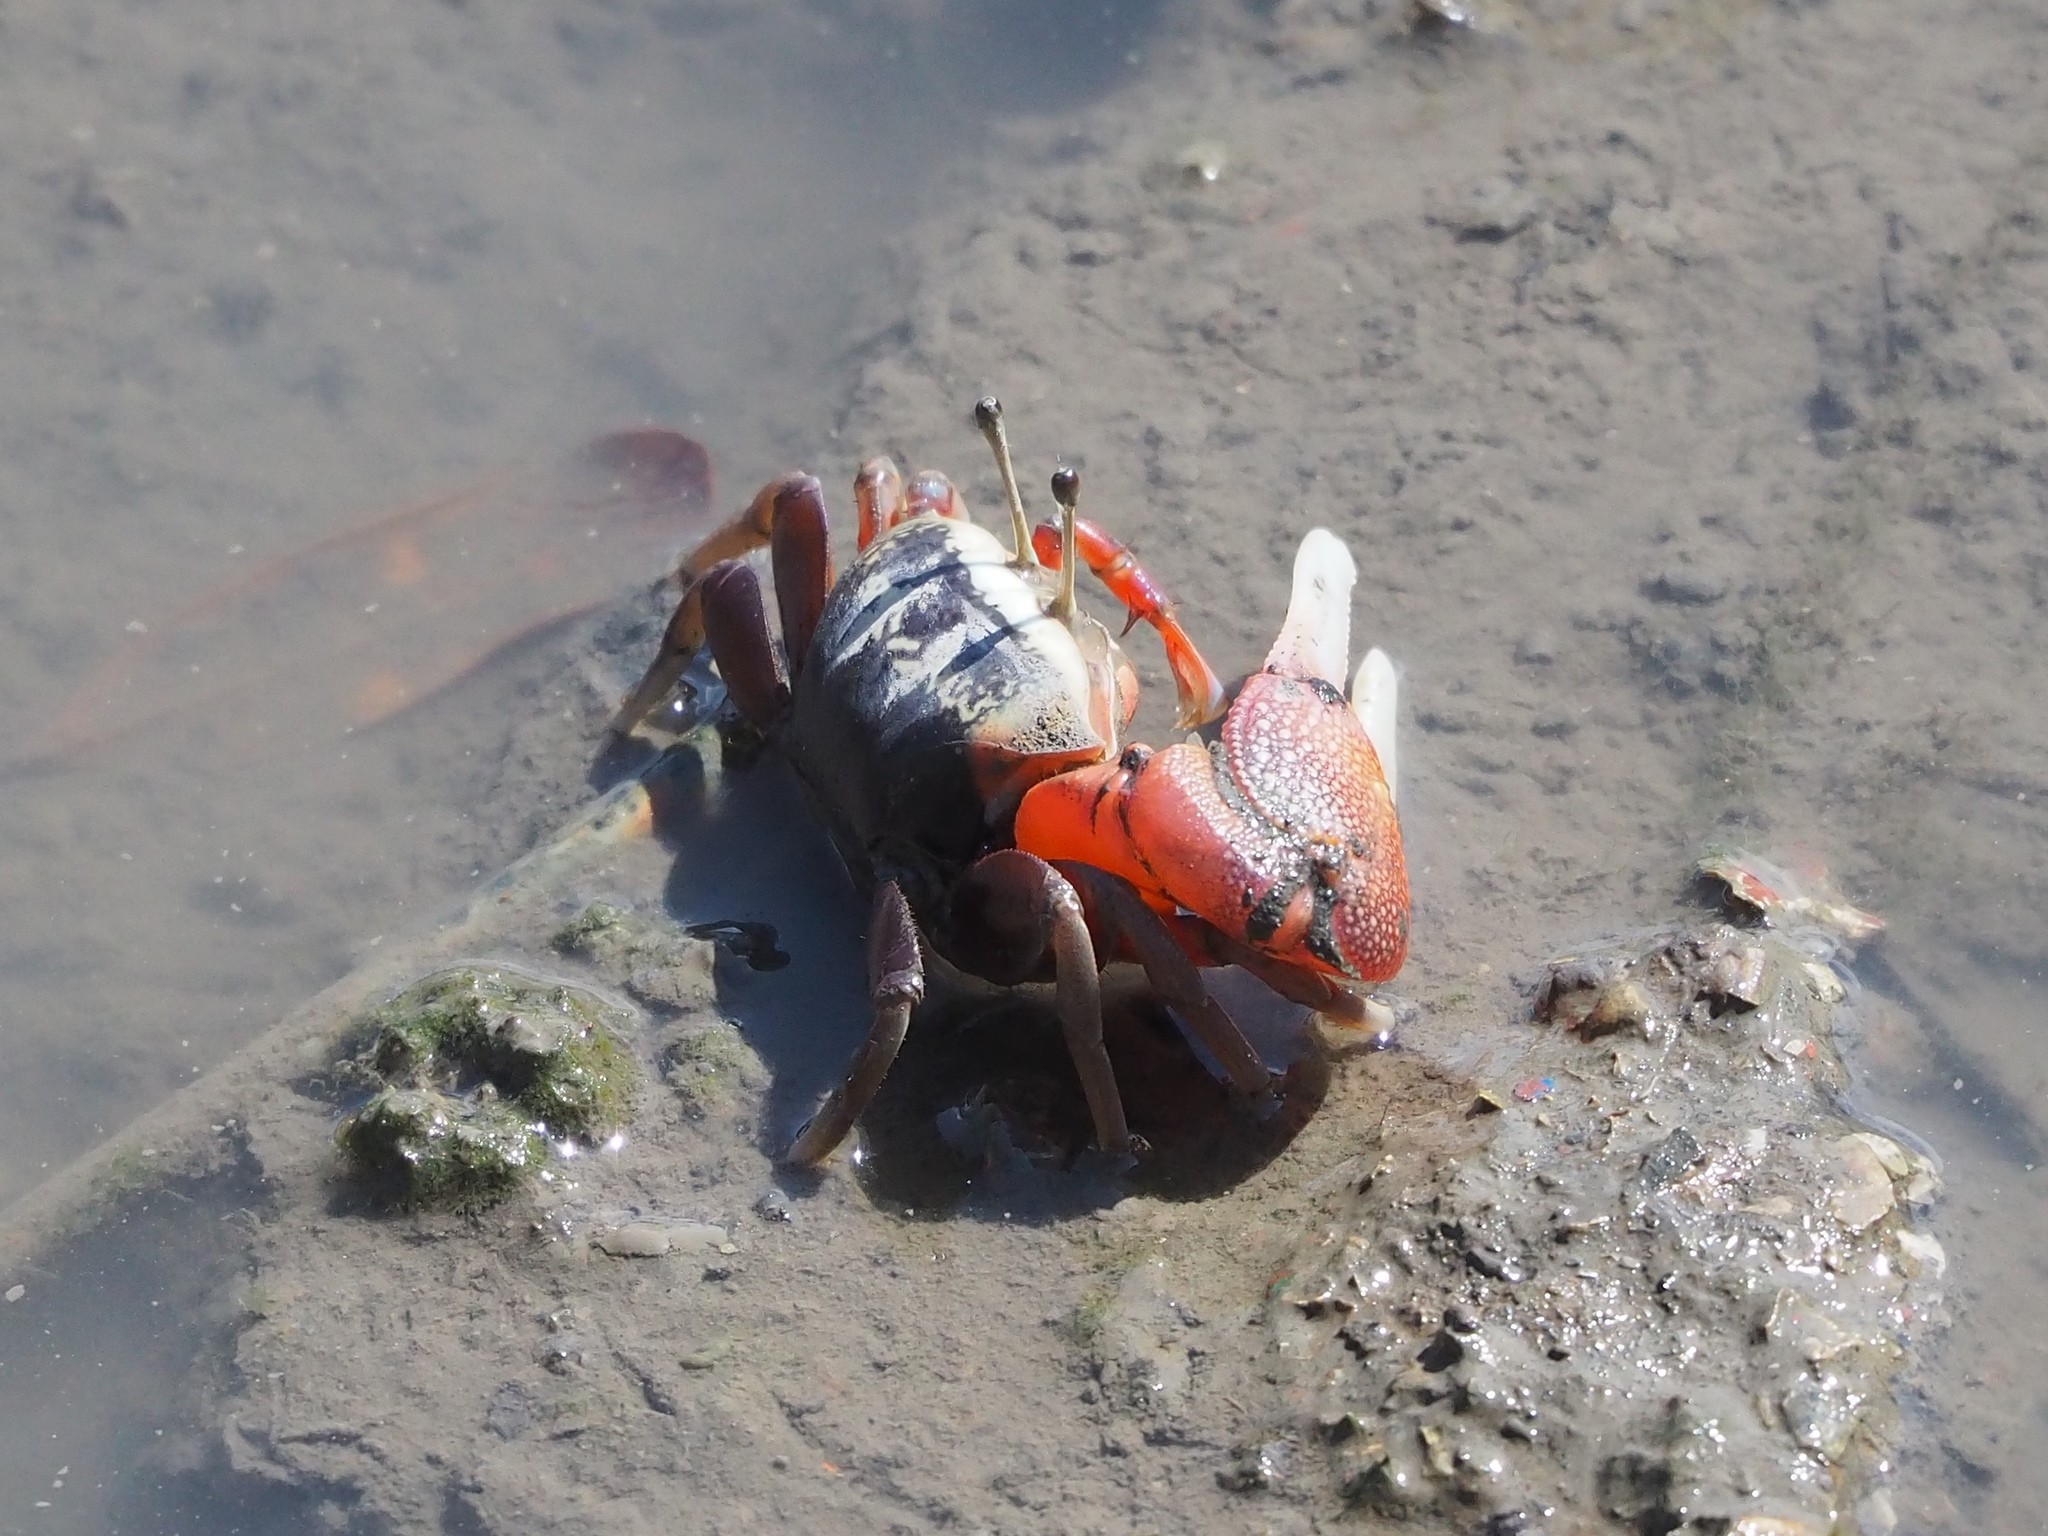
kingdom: Animalia
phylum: Arthropoda
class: Malacostraca
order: Decapoda
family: Ocypodidae
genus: Tubuca
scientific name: Tubuca arcuata
